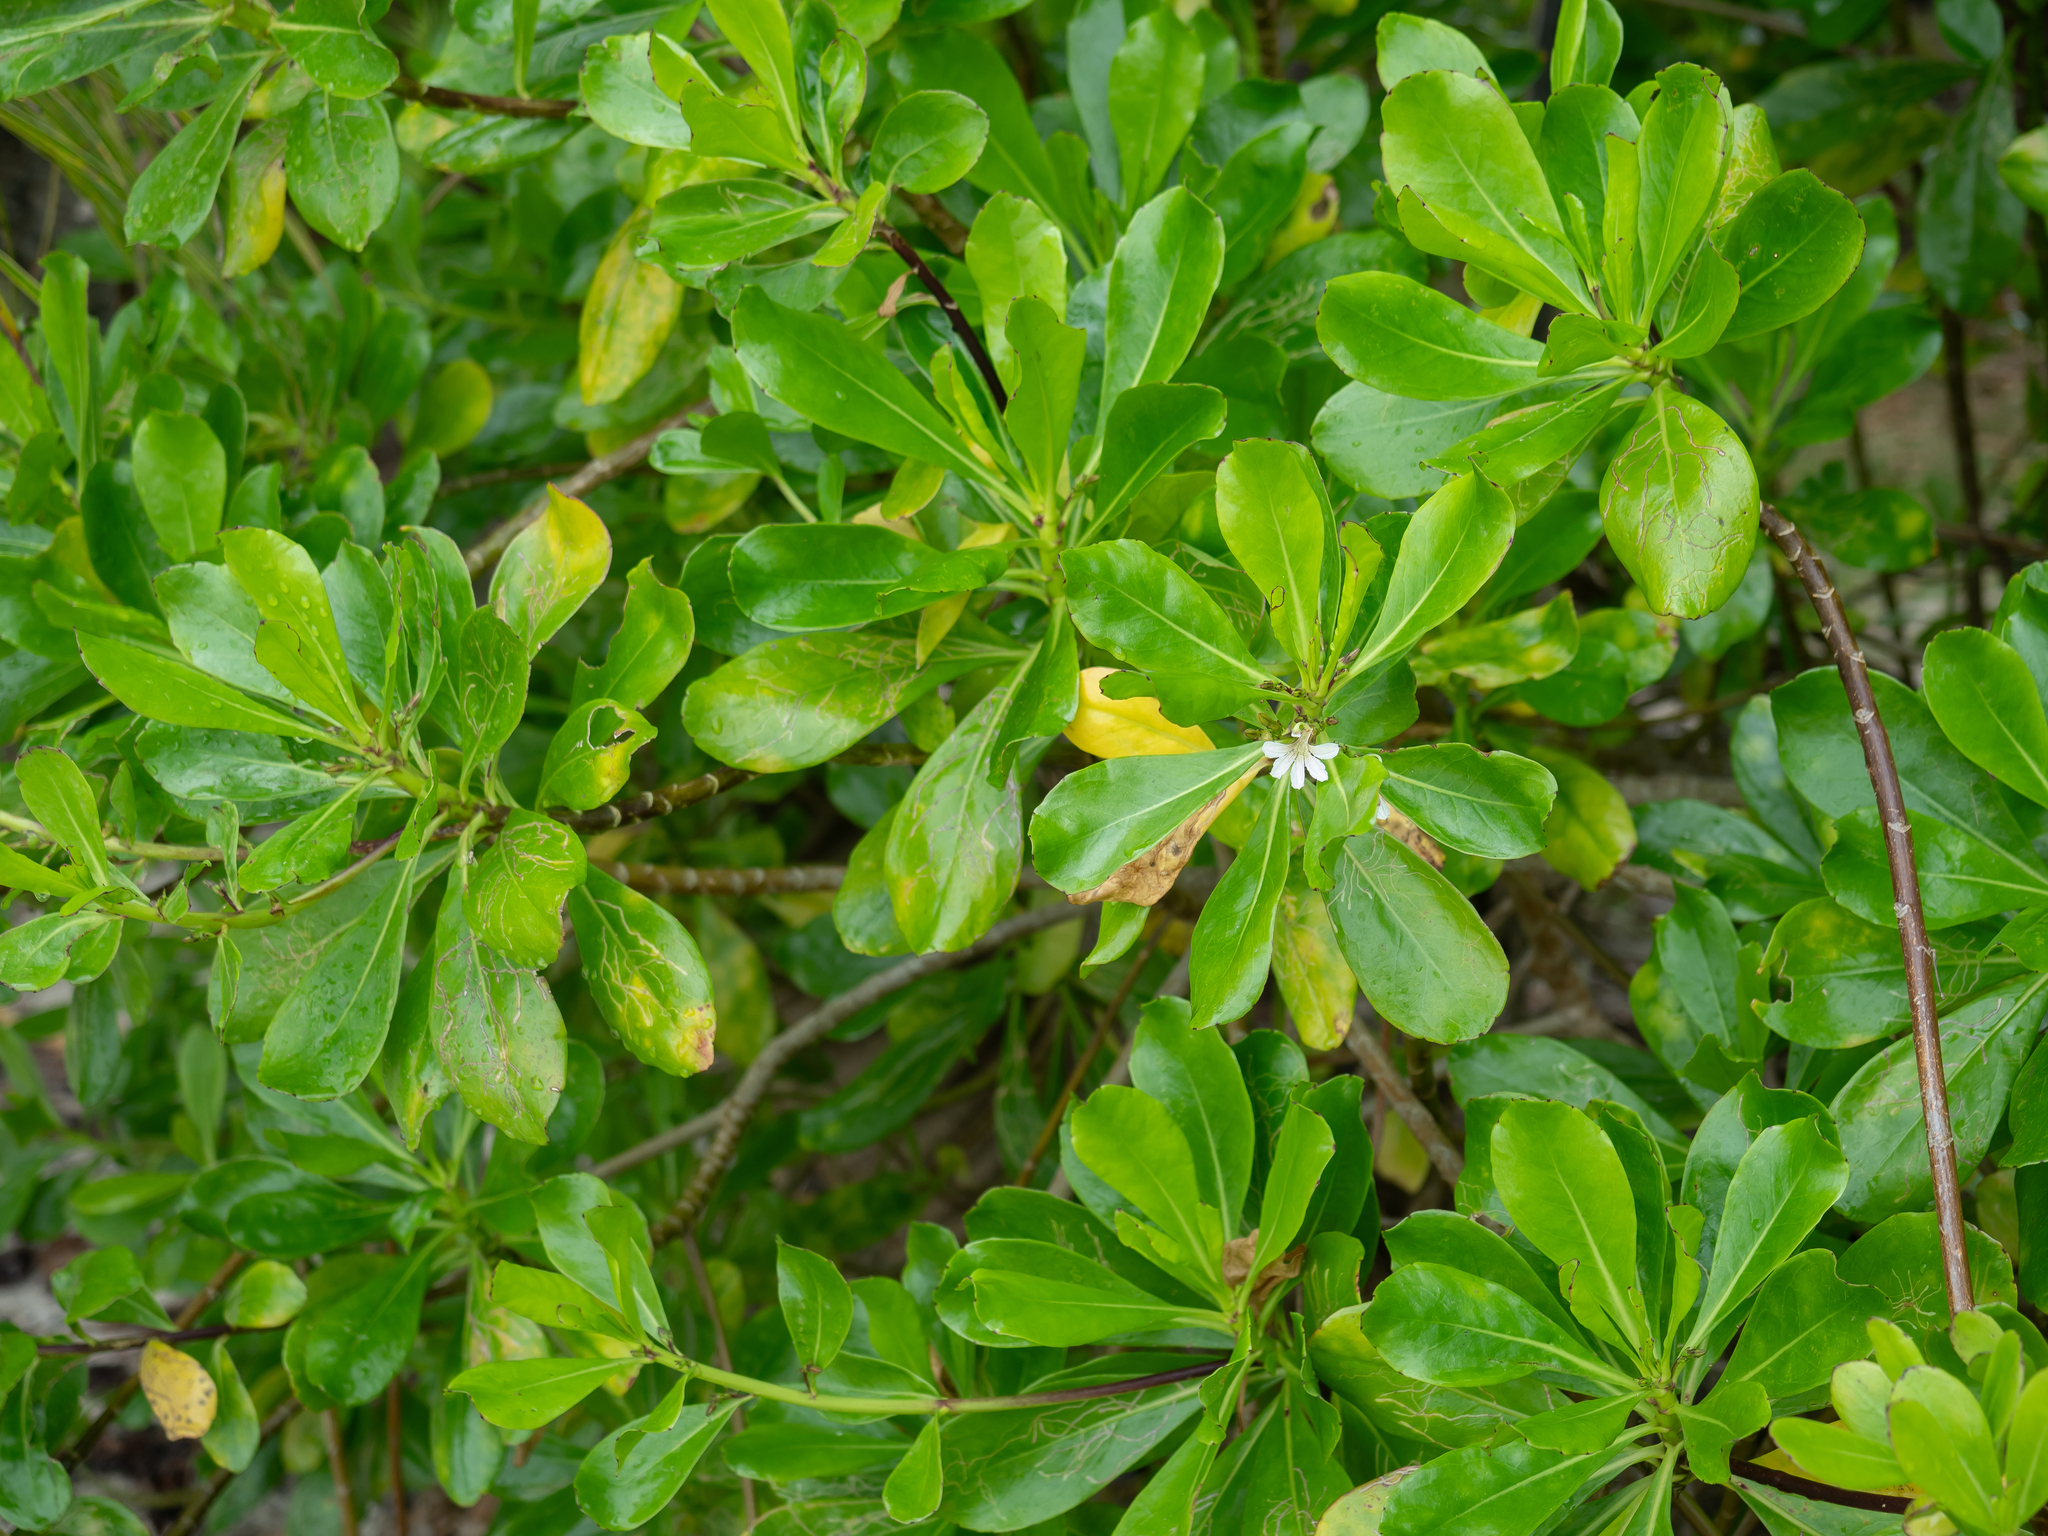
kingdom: Plantae
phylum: Tracheophyta
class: Magnoliopsida
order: Asterales
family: Goodeniaceae
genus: Scaevola
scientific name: Scaevola taccada
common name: Sea lettucetree
